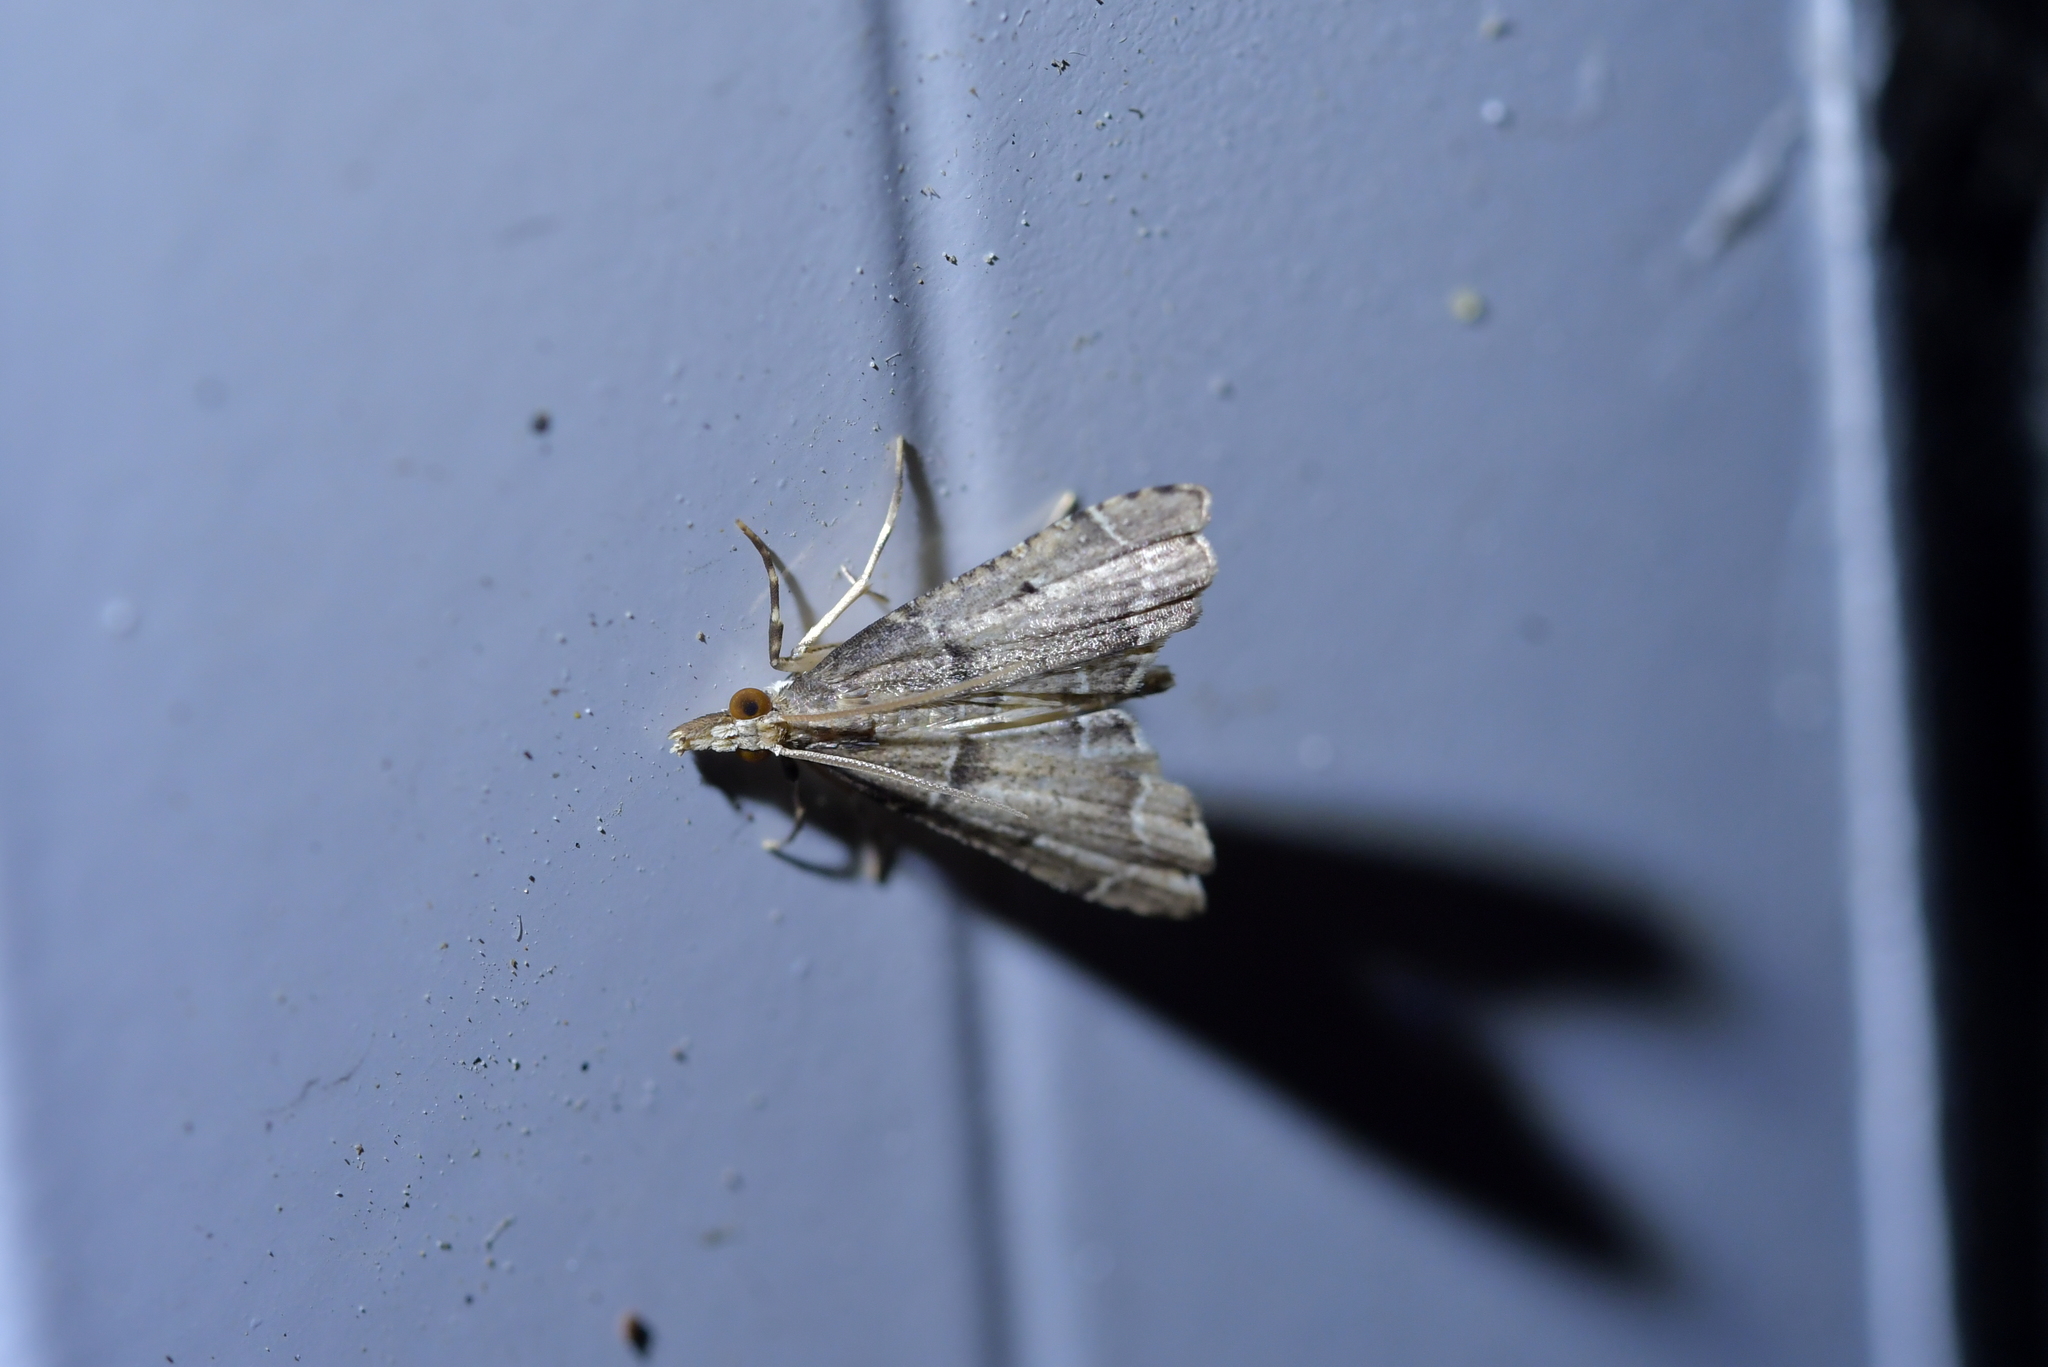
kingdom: Animalia
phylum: Arthropoda
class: Insecta
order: Lepidoptera
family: Crambidae
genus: Diplopseustis
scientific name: Diplopseustis perieresalis
